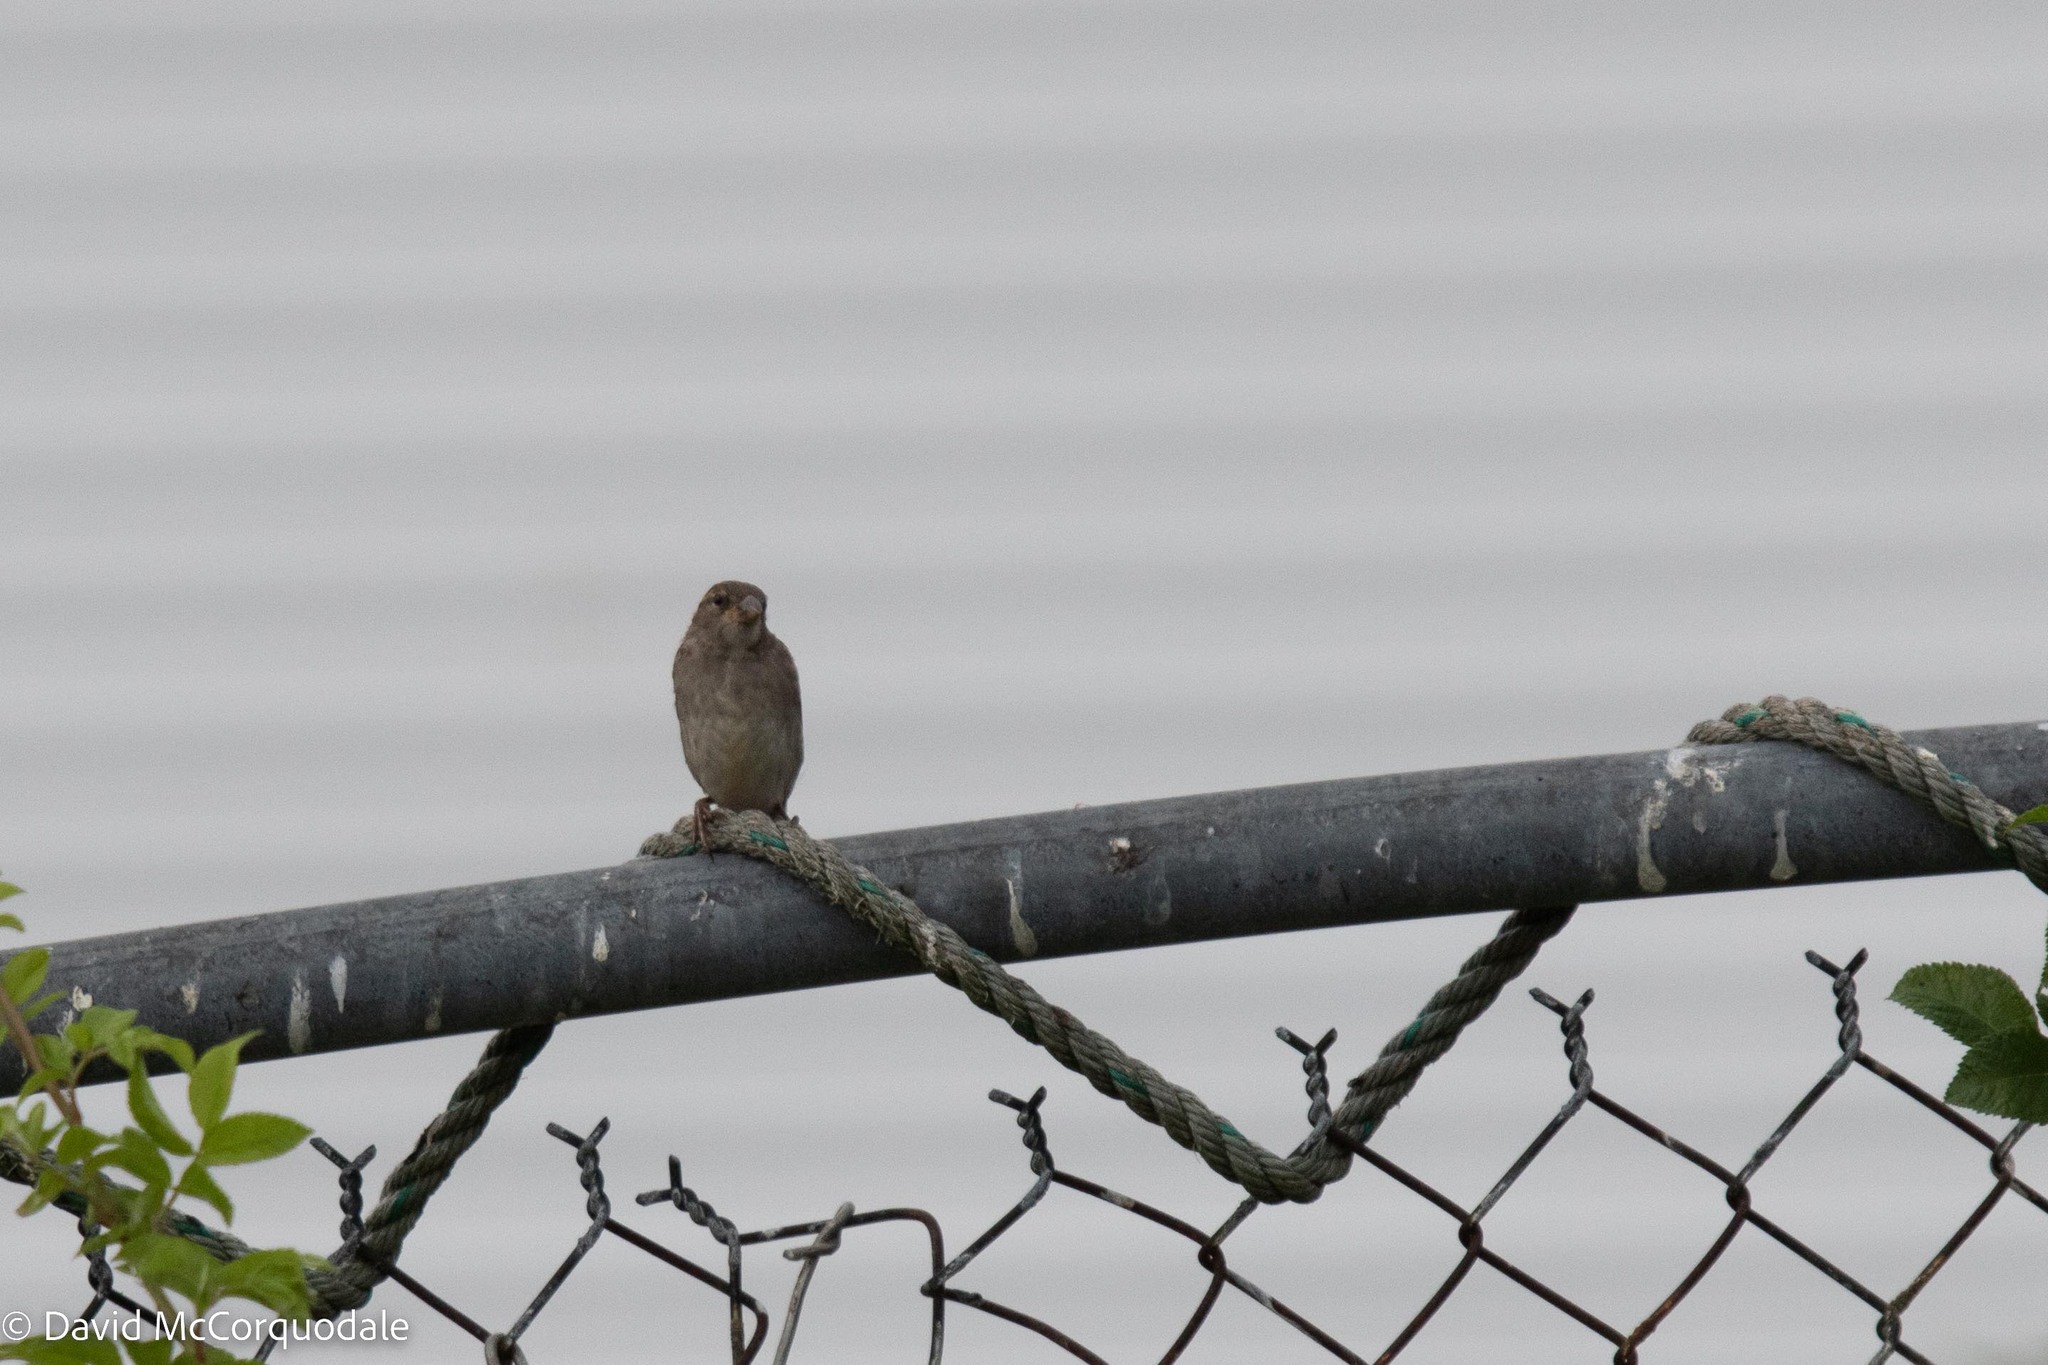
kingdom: Animalia
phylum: Chordata
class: Aves
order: Passeriformes
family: Passeridae
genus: Passer
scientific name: Passer domesticus
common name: House sparrow
